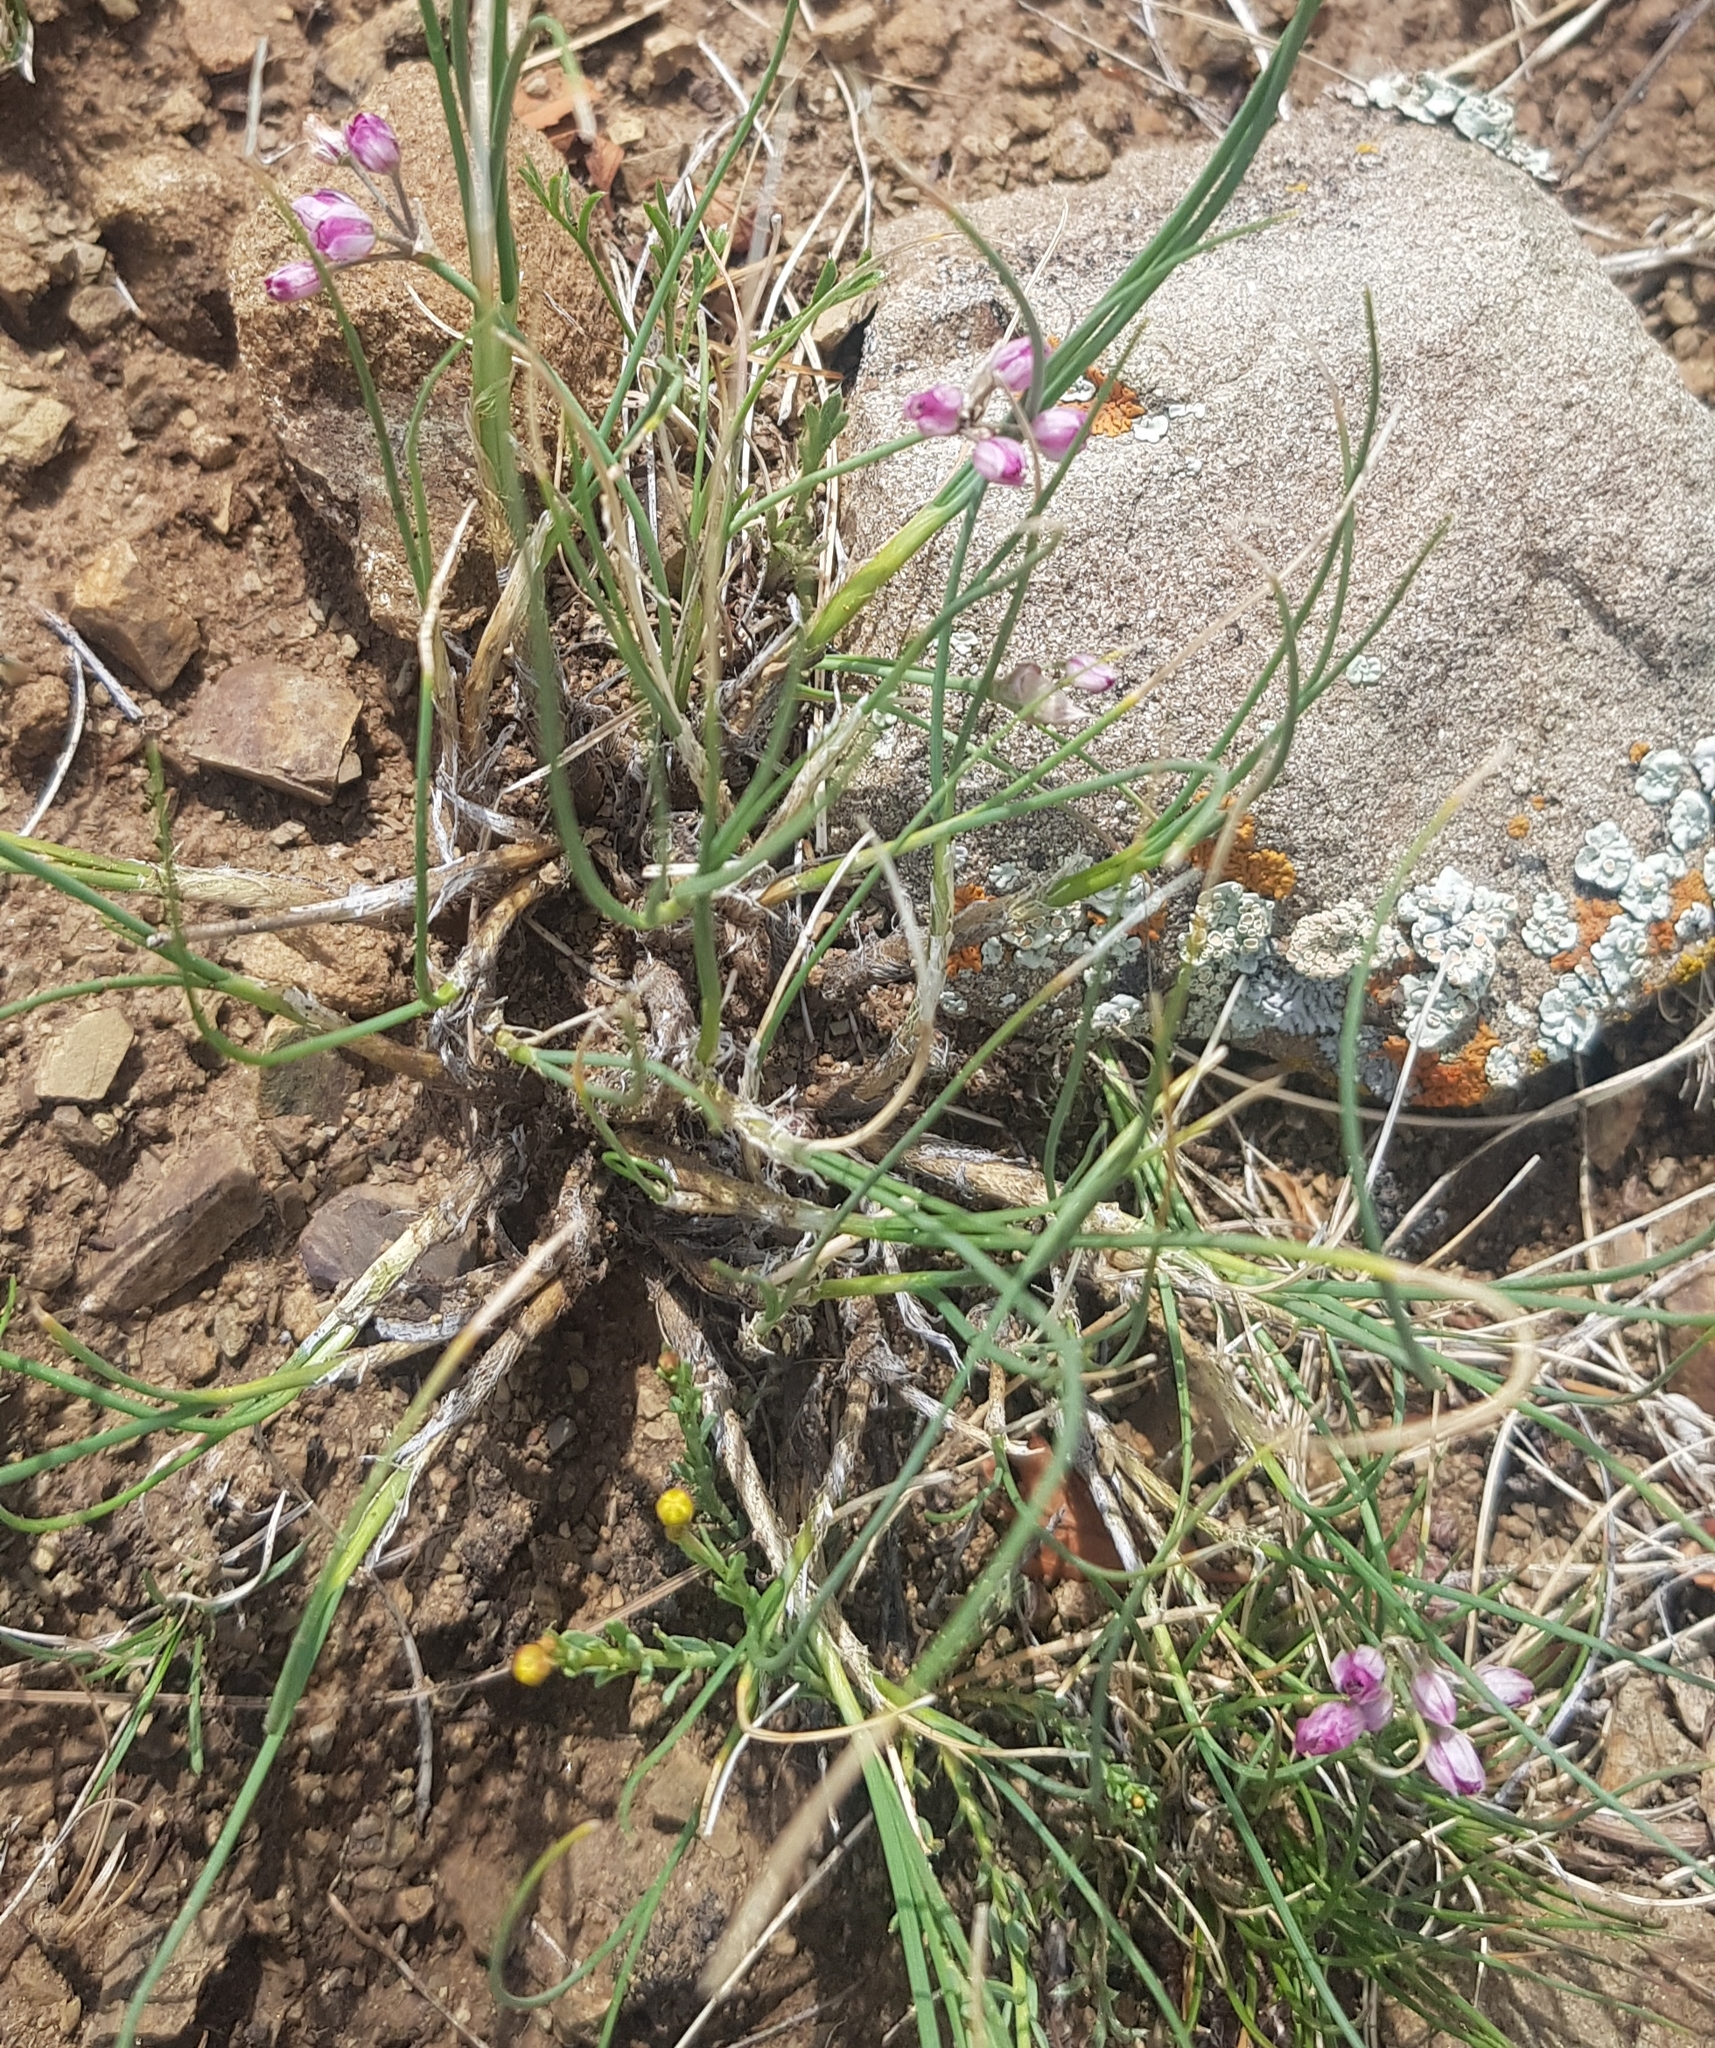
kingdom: Plantae
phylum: Tracheophyta
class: Liliopsida
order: Asparagales
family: Amaryllidaceae
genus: Allium
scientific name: Allium anisopodium
